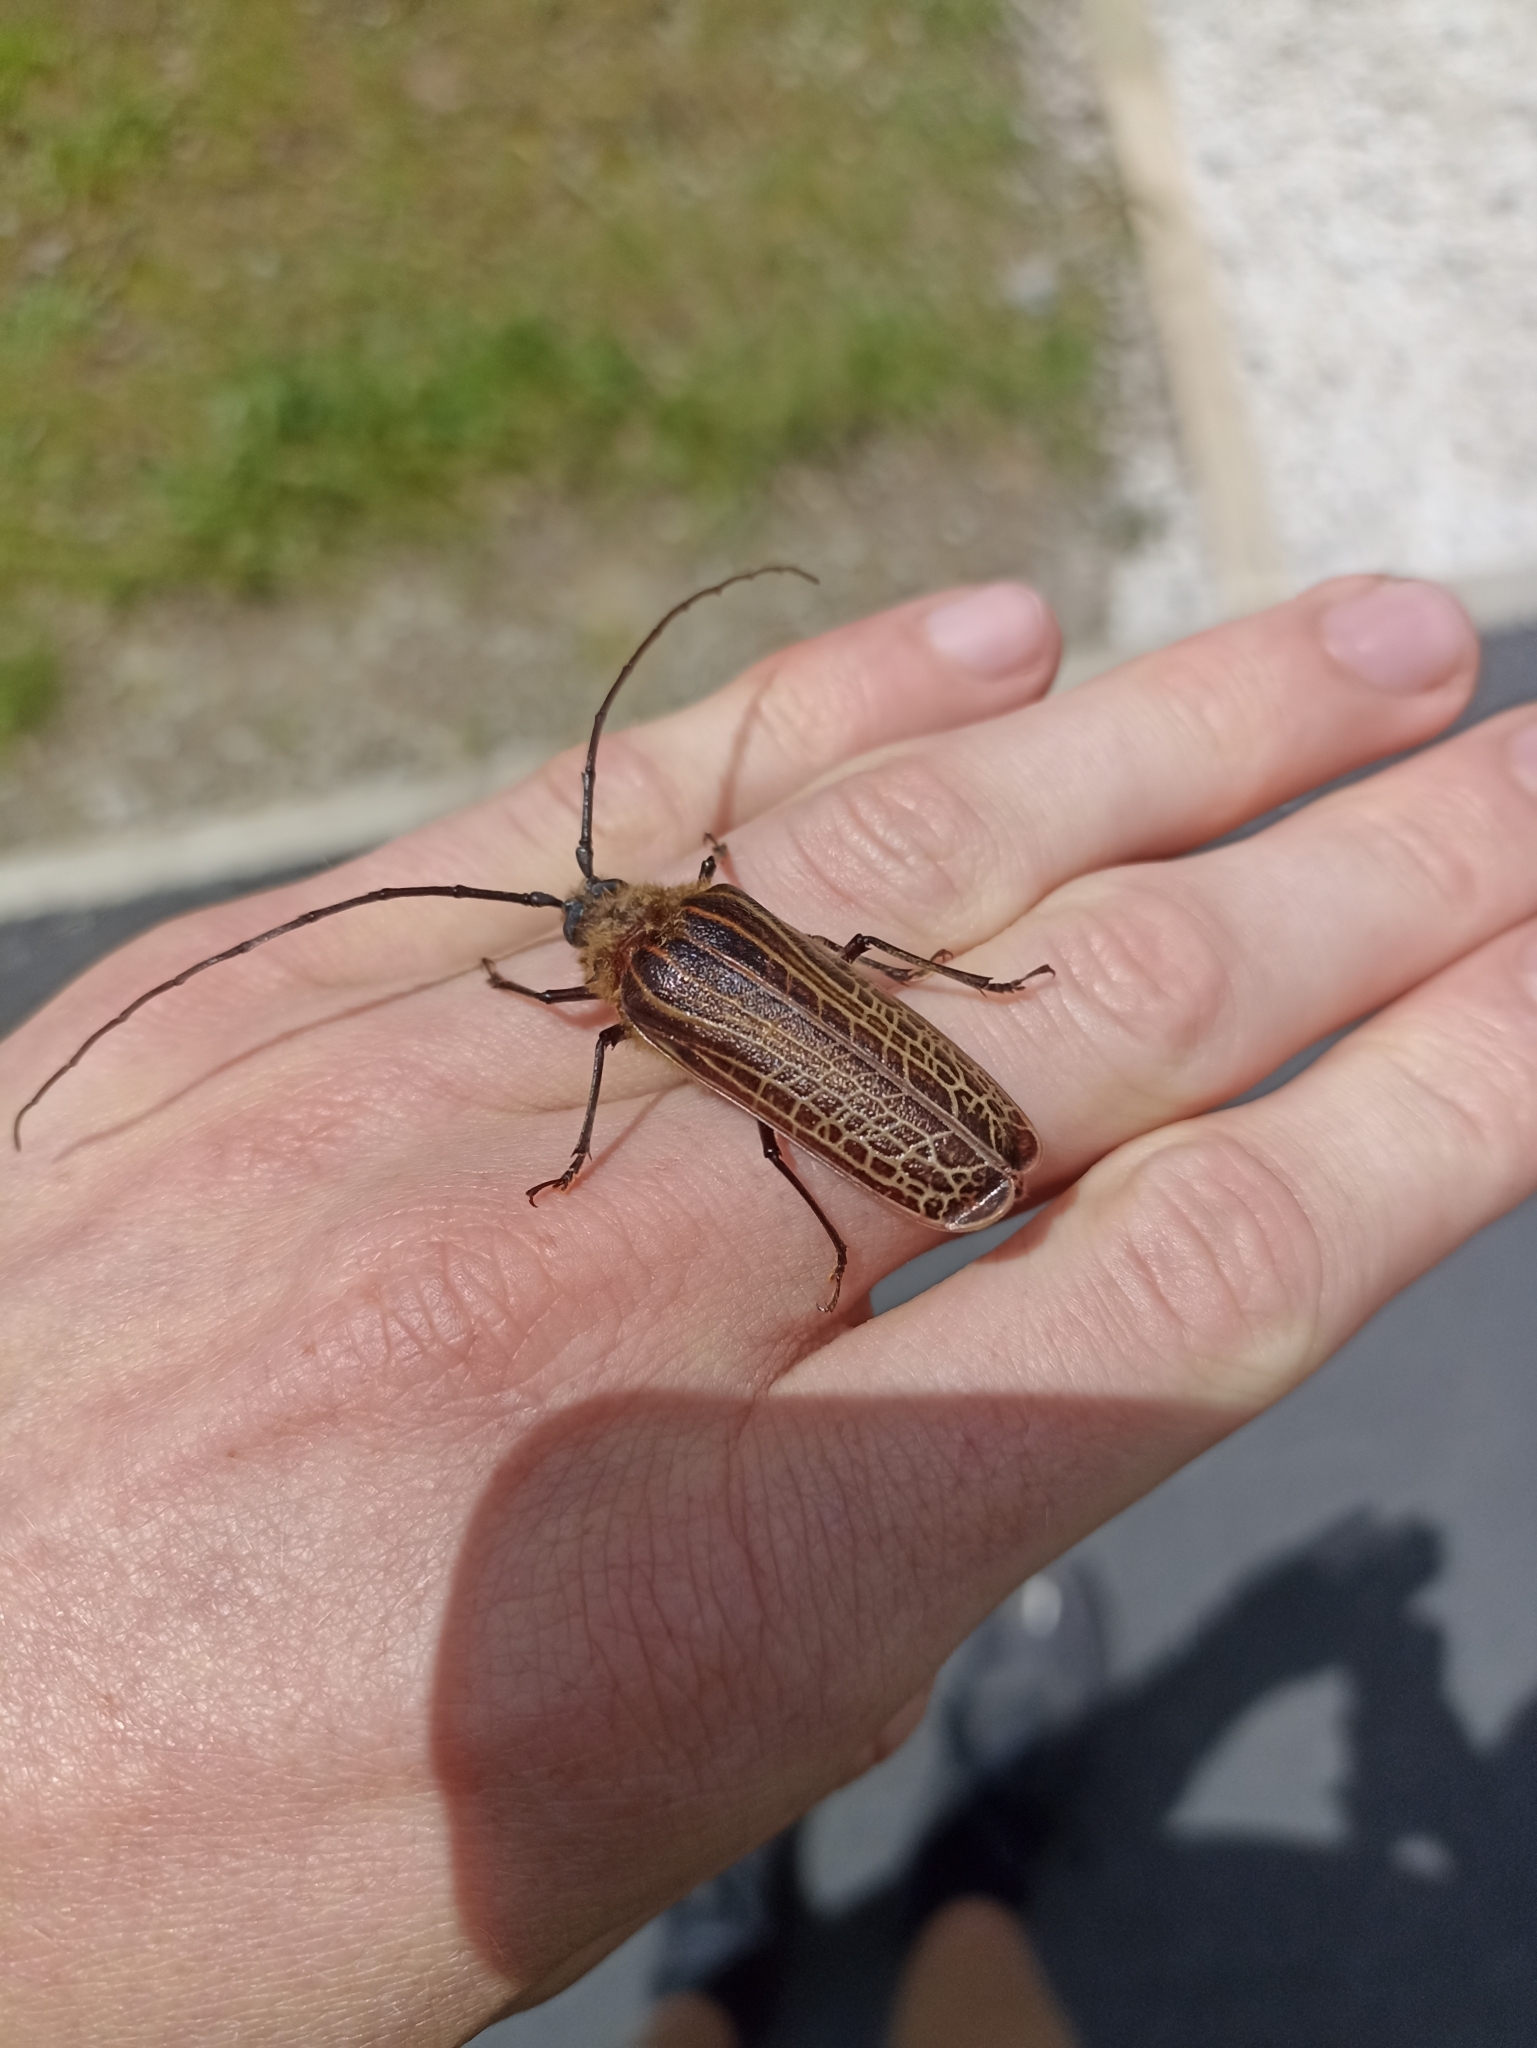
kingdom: Animalia
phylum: Arthropoda
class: Insecta
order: Coleoptera
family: Cerambycidae
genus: Prionoplus
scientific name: Prionoplus reticularis
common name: Huhu beetle
